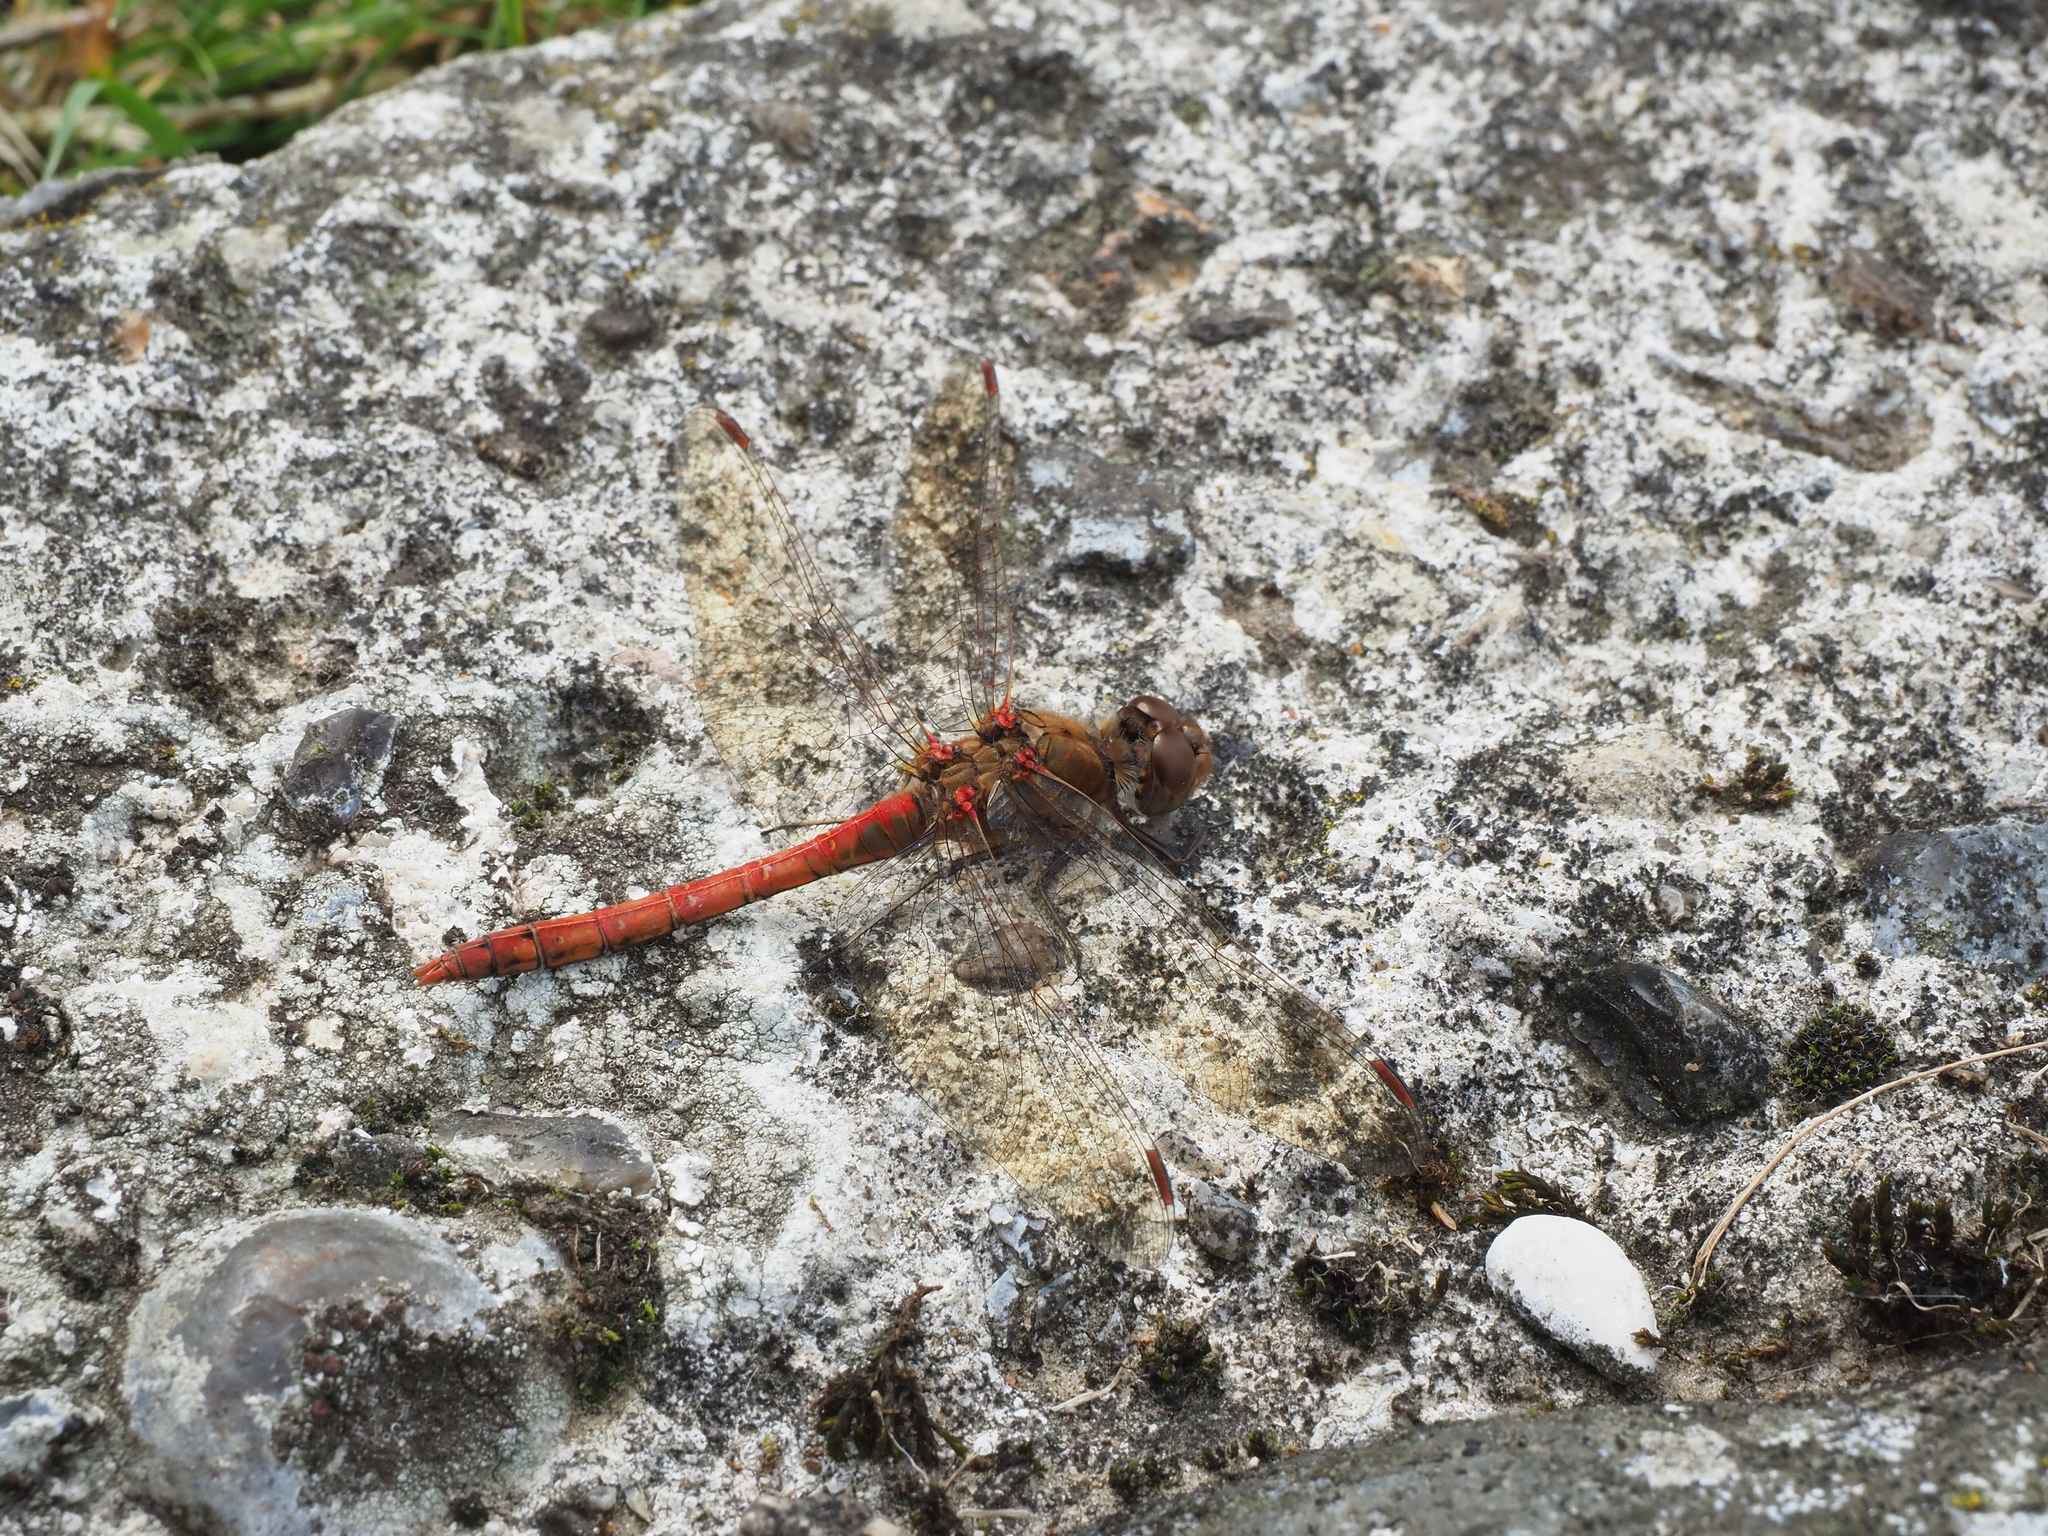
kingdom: Animalia
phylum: Arthropoda
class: Insecta
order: Odonata
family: Libellulidae
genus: Sympetrum
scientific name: Sympetrum striolatum
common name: Common darter
